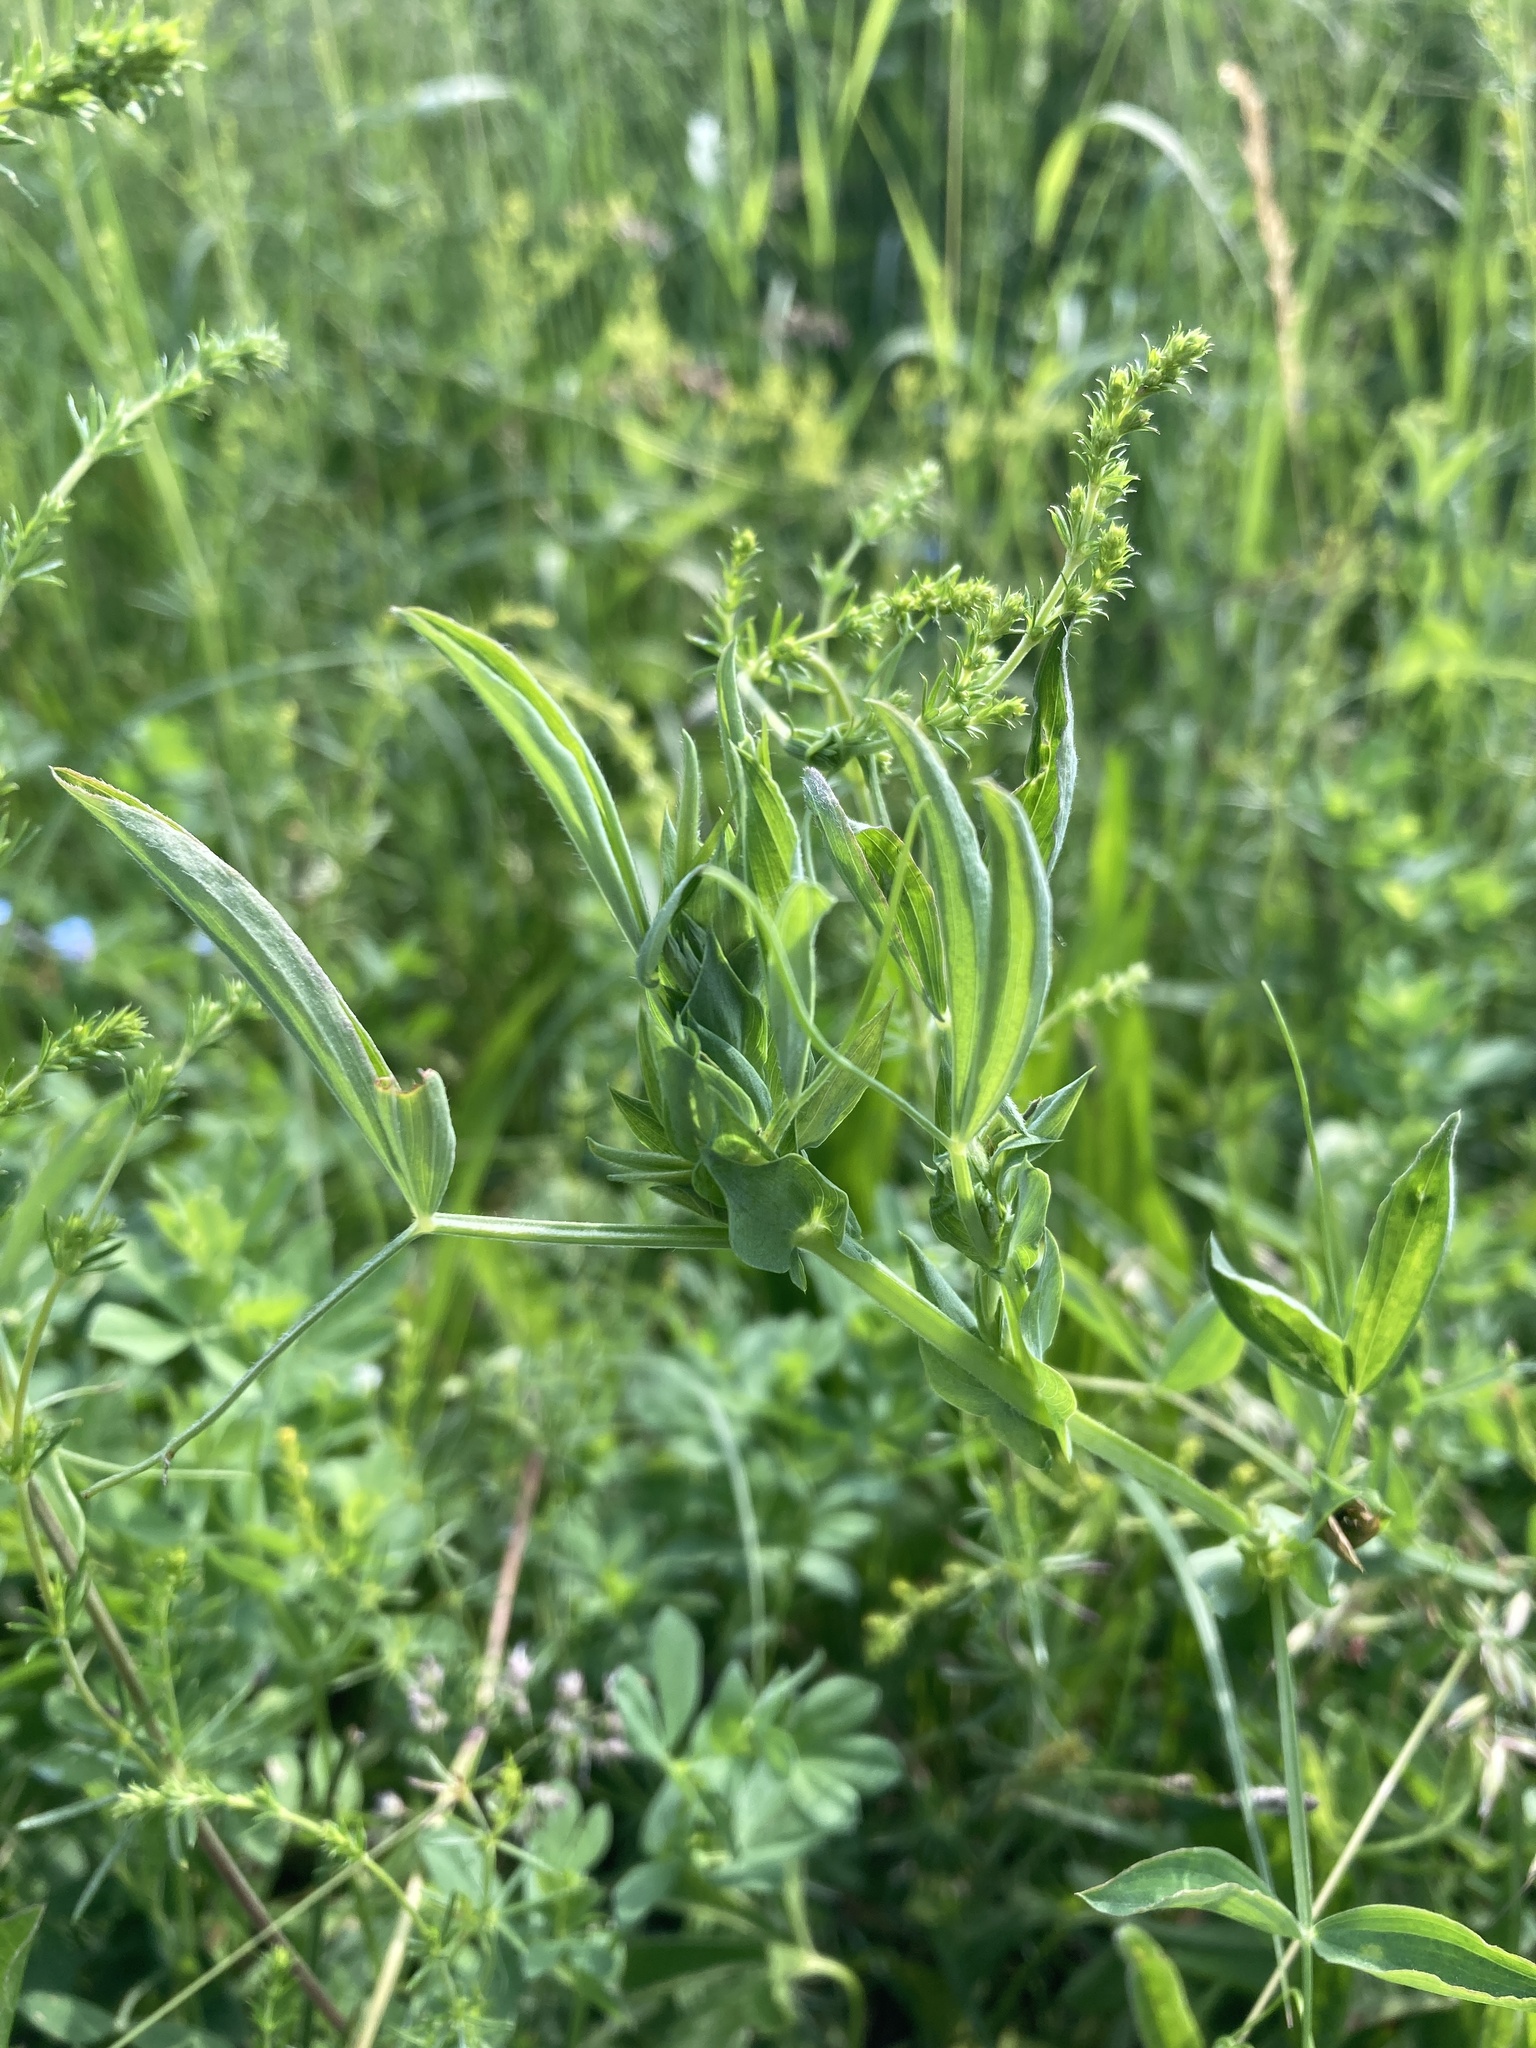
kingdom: Plantae
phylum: Tracheophyta
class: Magnoliopsida
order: Fabales
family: Fabaceae
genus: Lathyrus
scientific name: Lathyrus pratensis
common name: Meadow vetchling
